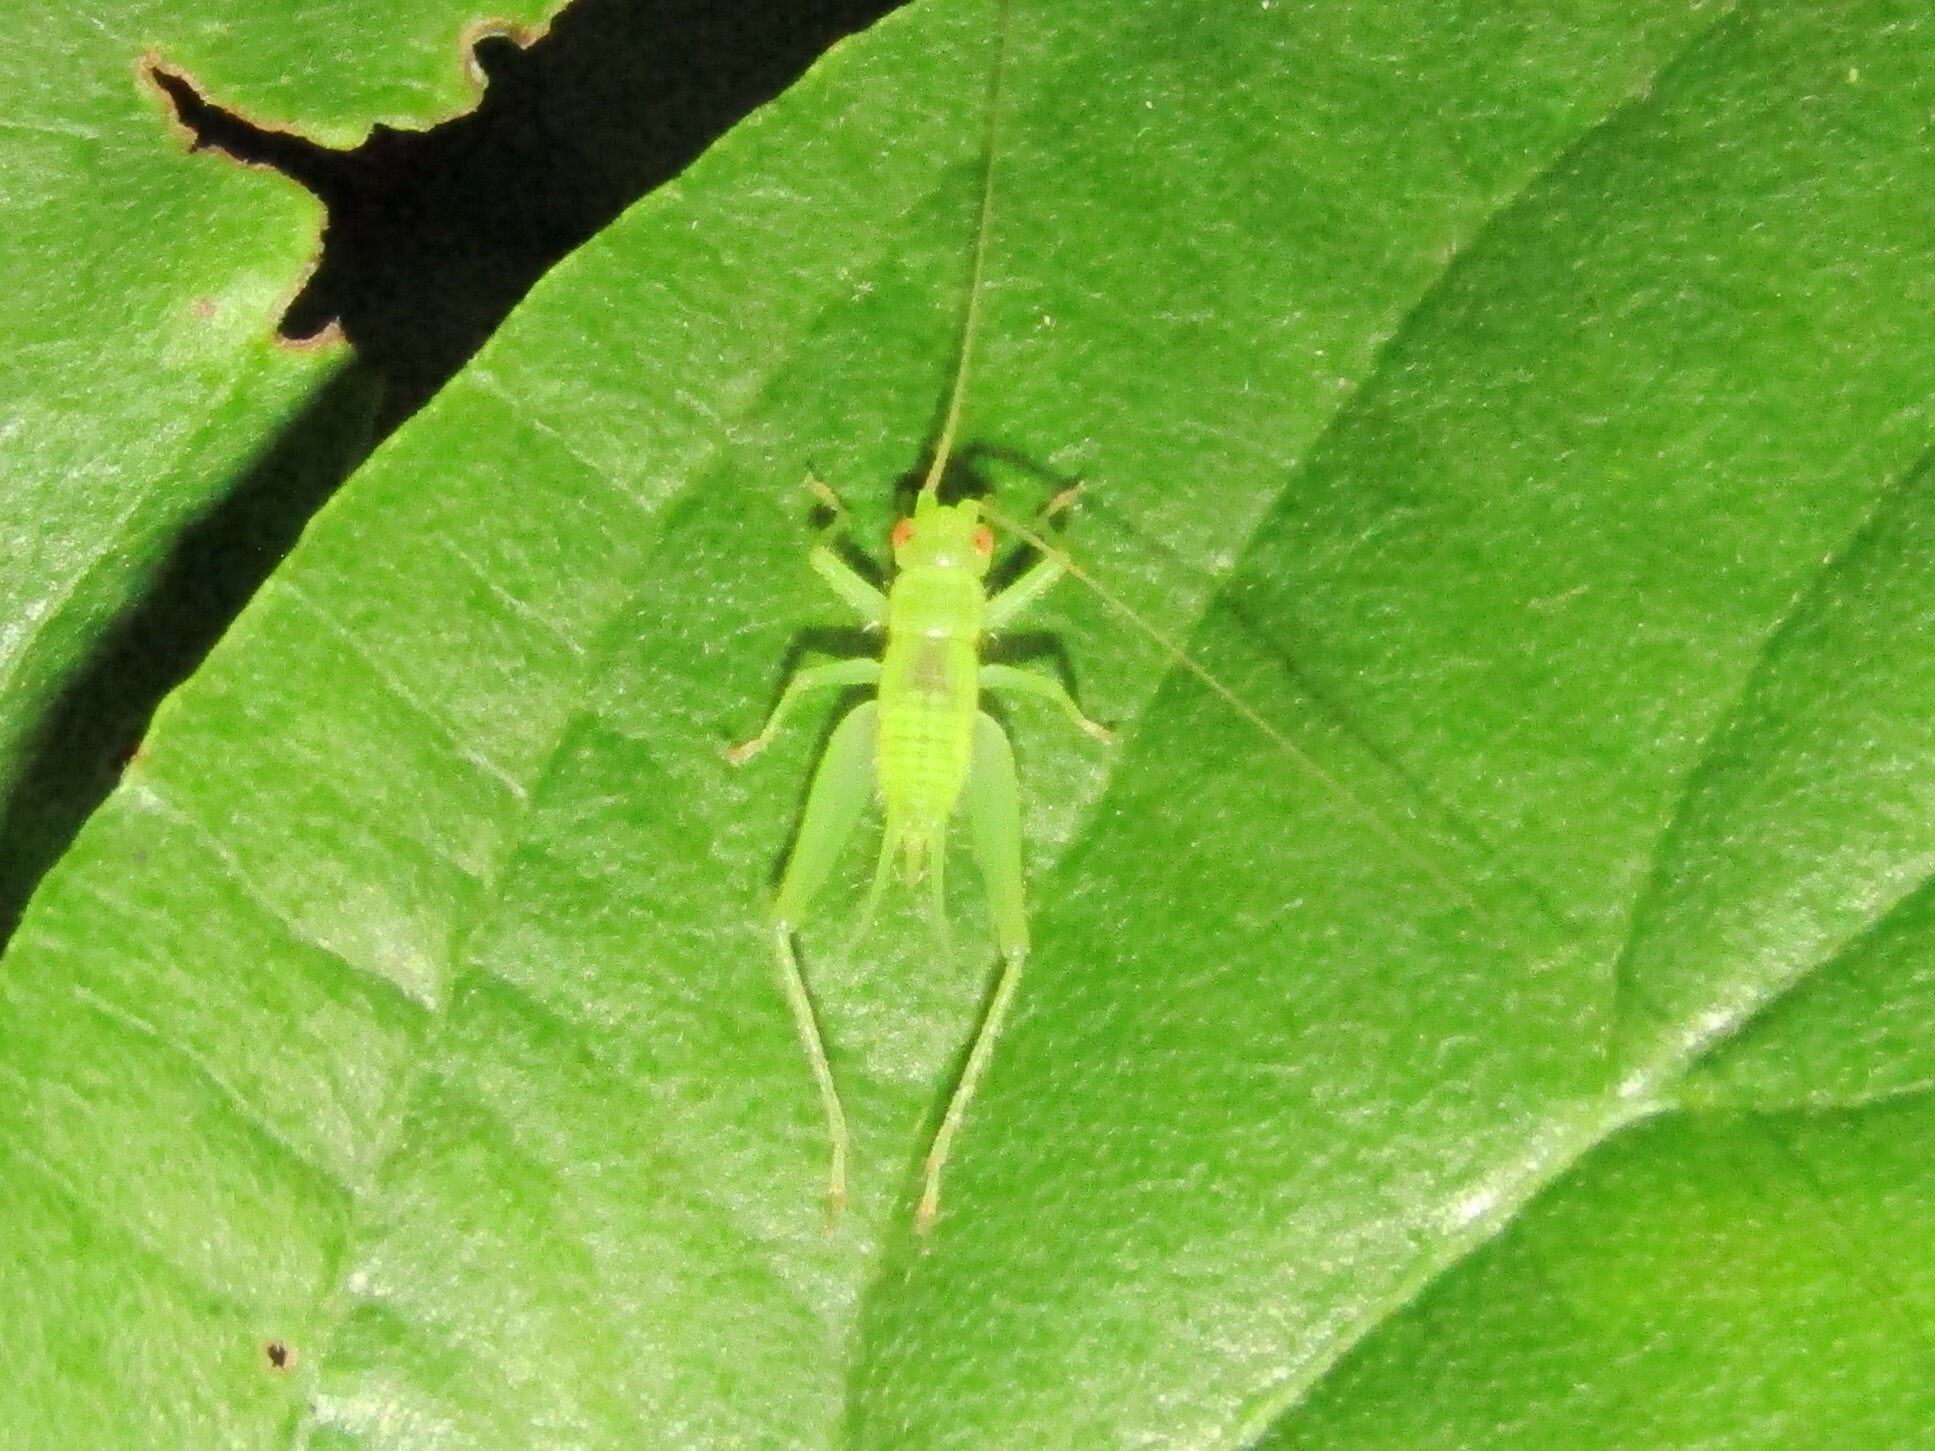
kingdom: Animalia
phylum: Arthropoda
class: Insecta
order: Orthoptera
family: Trigonidiidae
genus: Cyrtoxipha
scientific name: Cyrtoxipha columbiana
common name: Columbian trig
